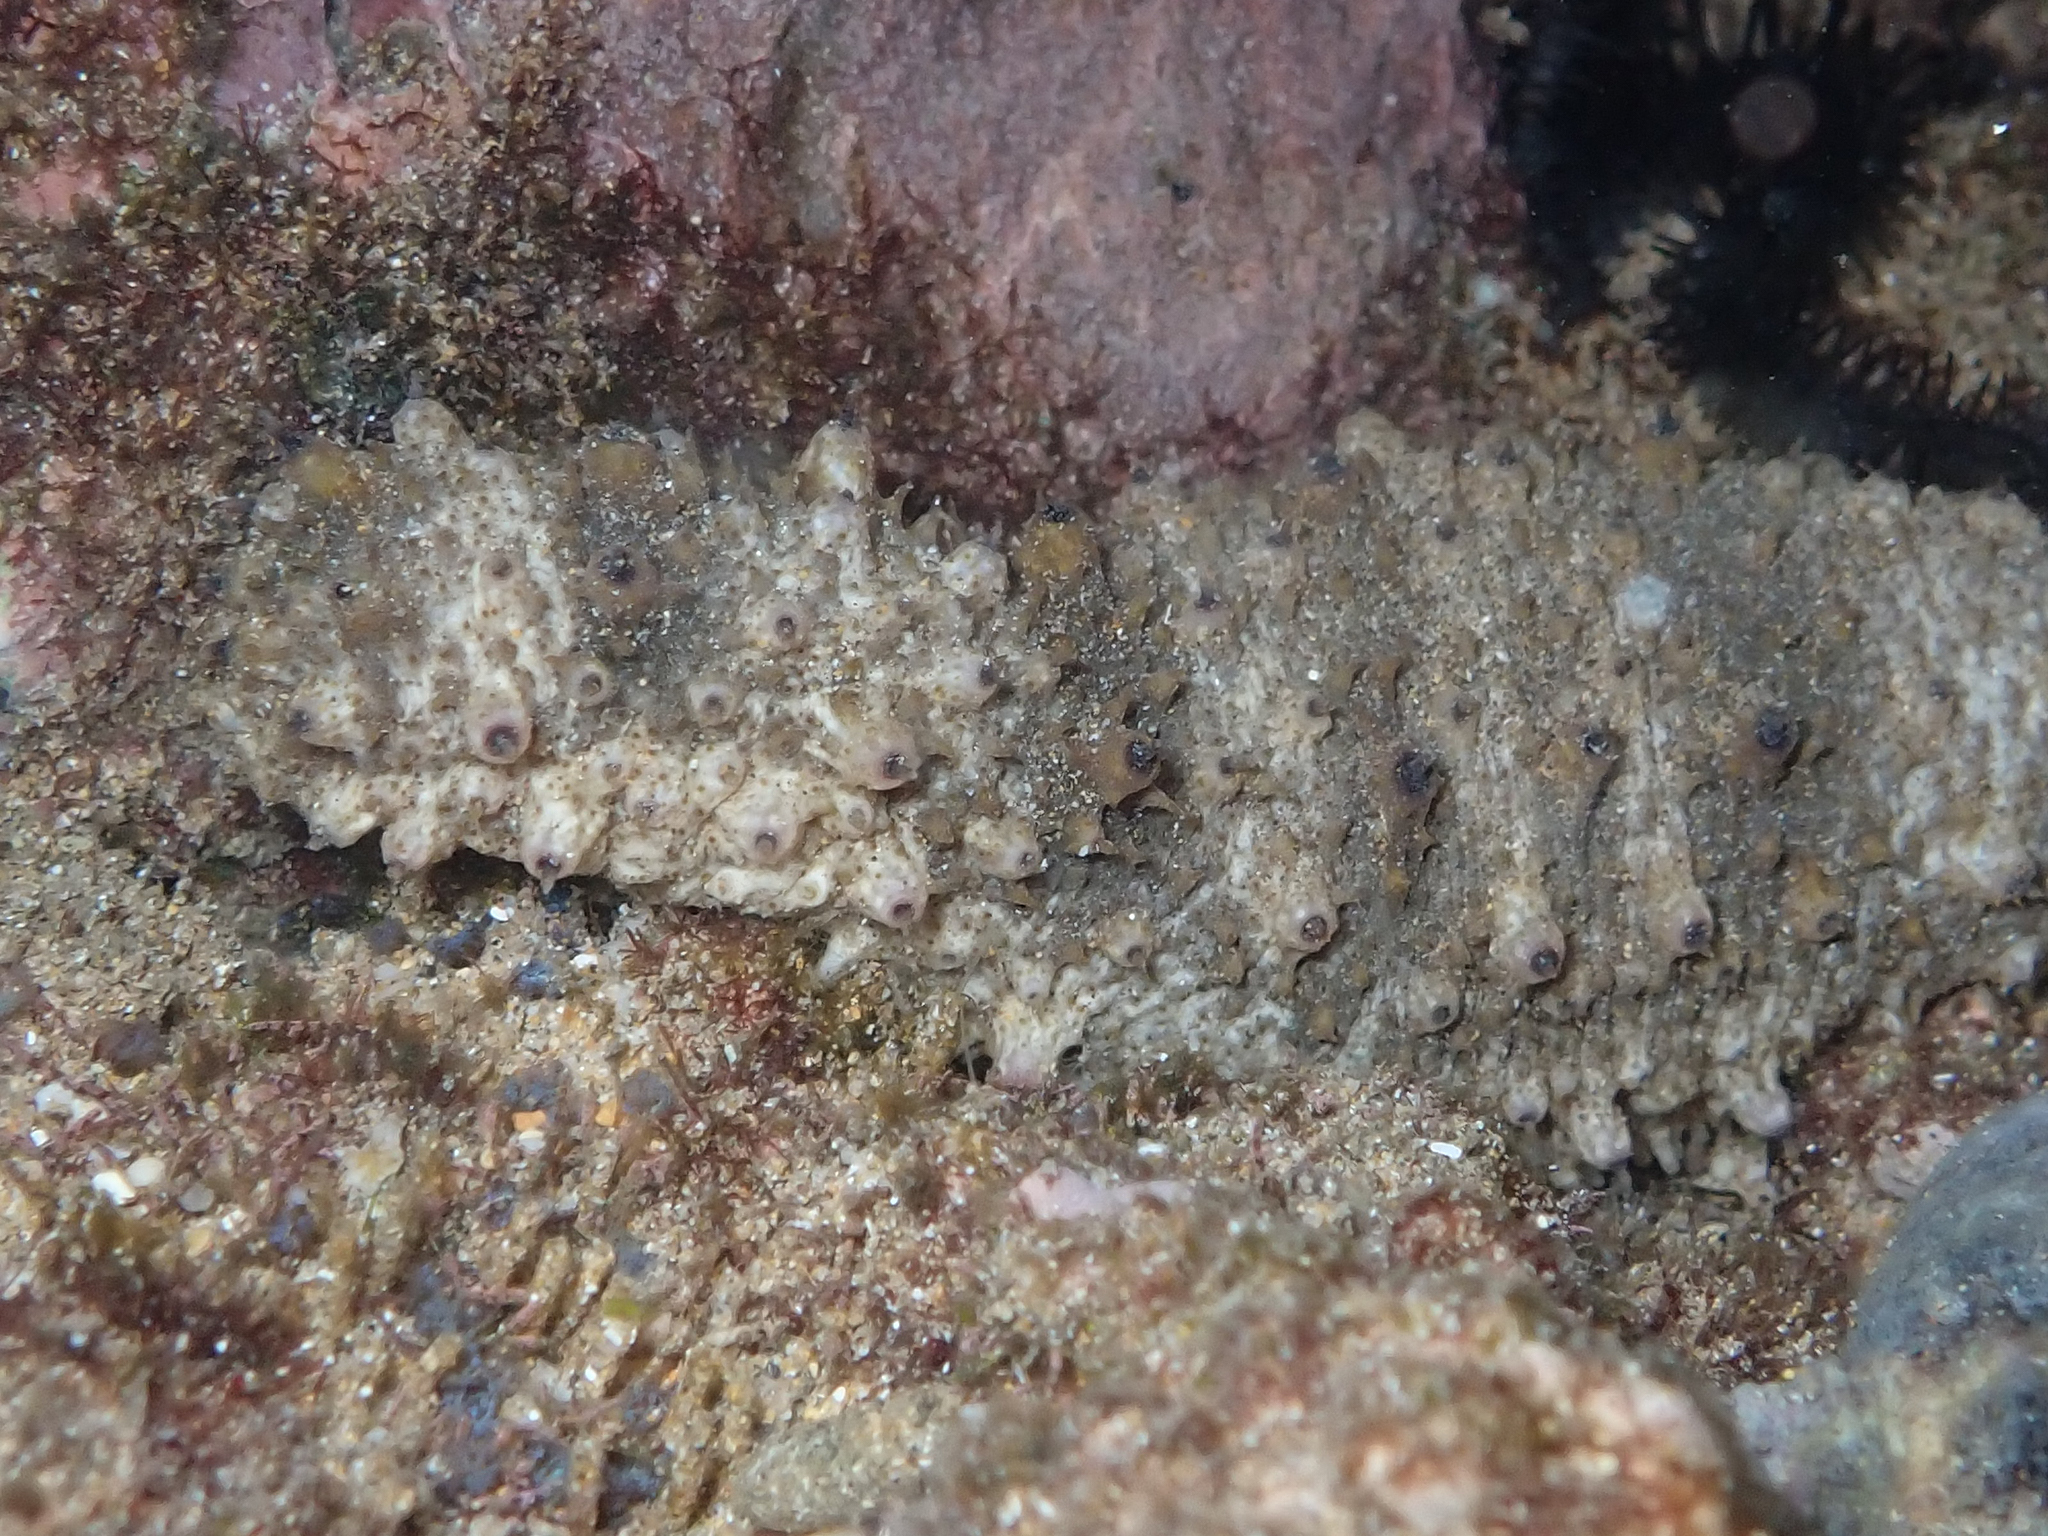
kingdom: Animalia
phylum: Echinodermata
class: Holothuroidea
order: Holothuriida
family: Holothuriidae
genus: Holothuria
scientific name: Holothuria pervicax
